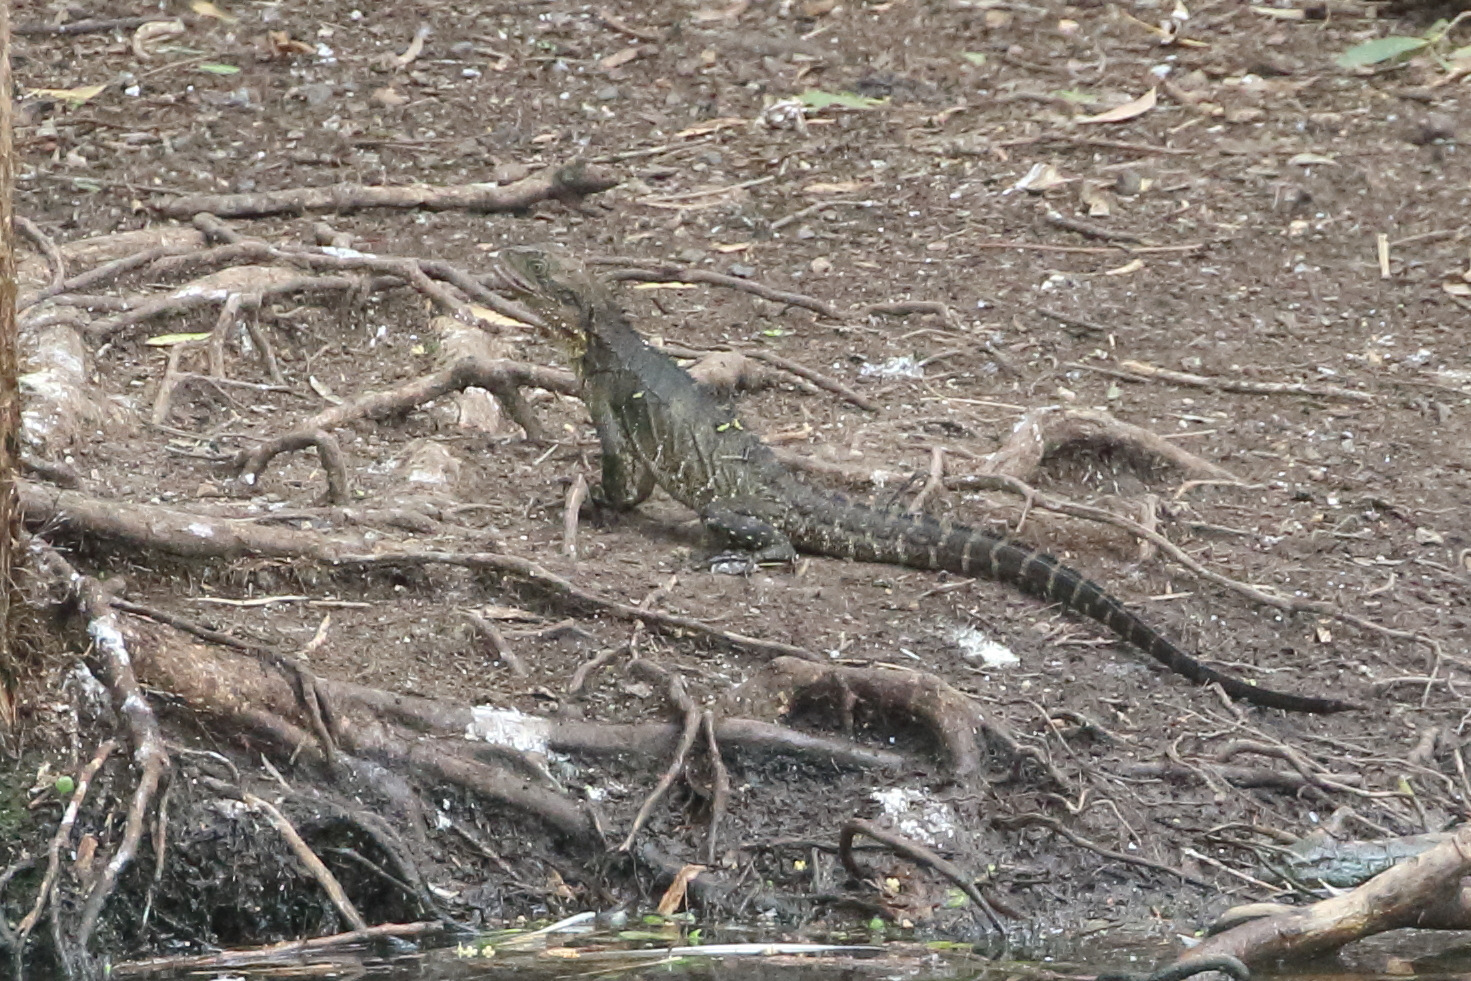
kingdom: Animalia
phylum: Chordata
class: Squamata
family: Agamidae
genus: Intellagama
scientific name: Intellagama lesueurii
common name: Eastern water dragon
